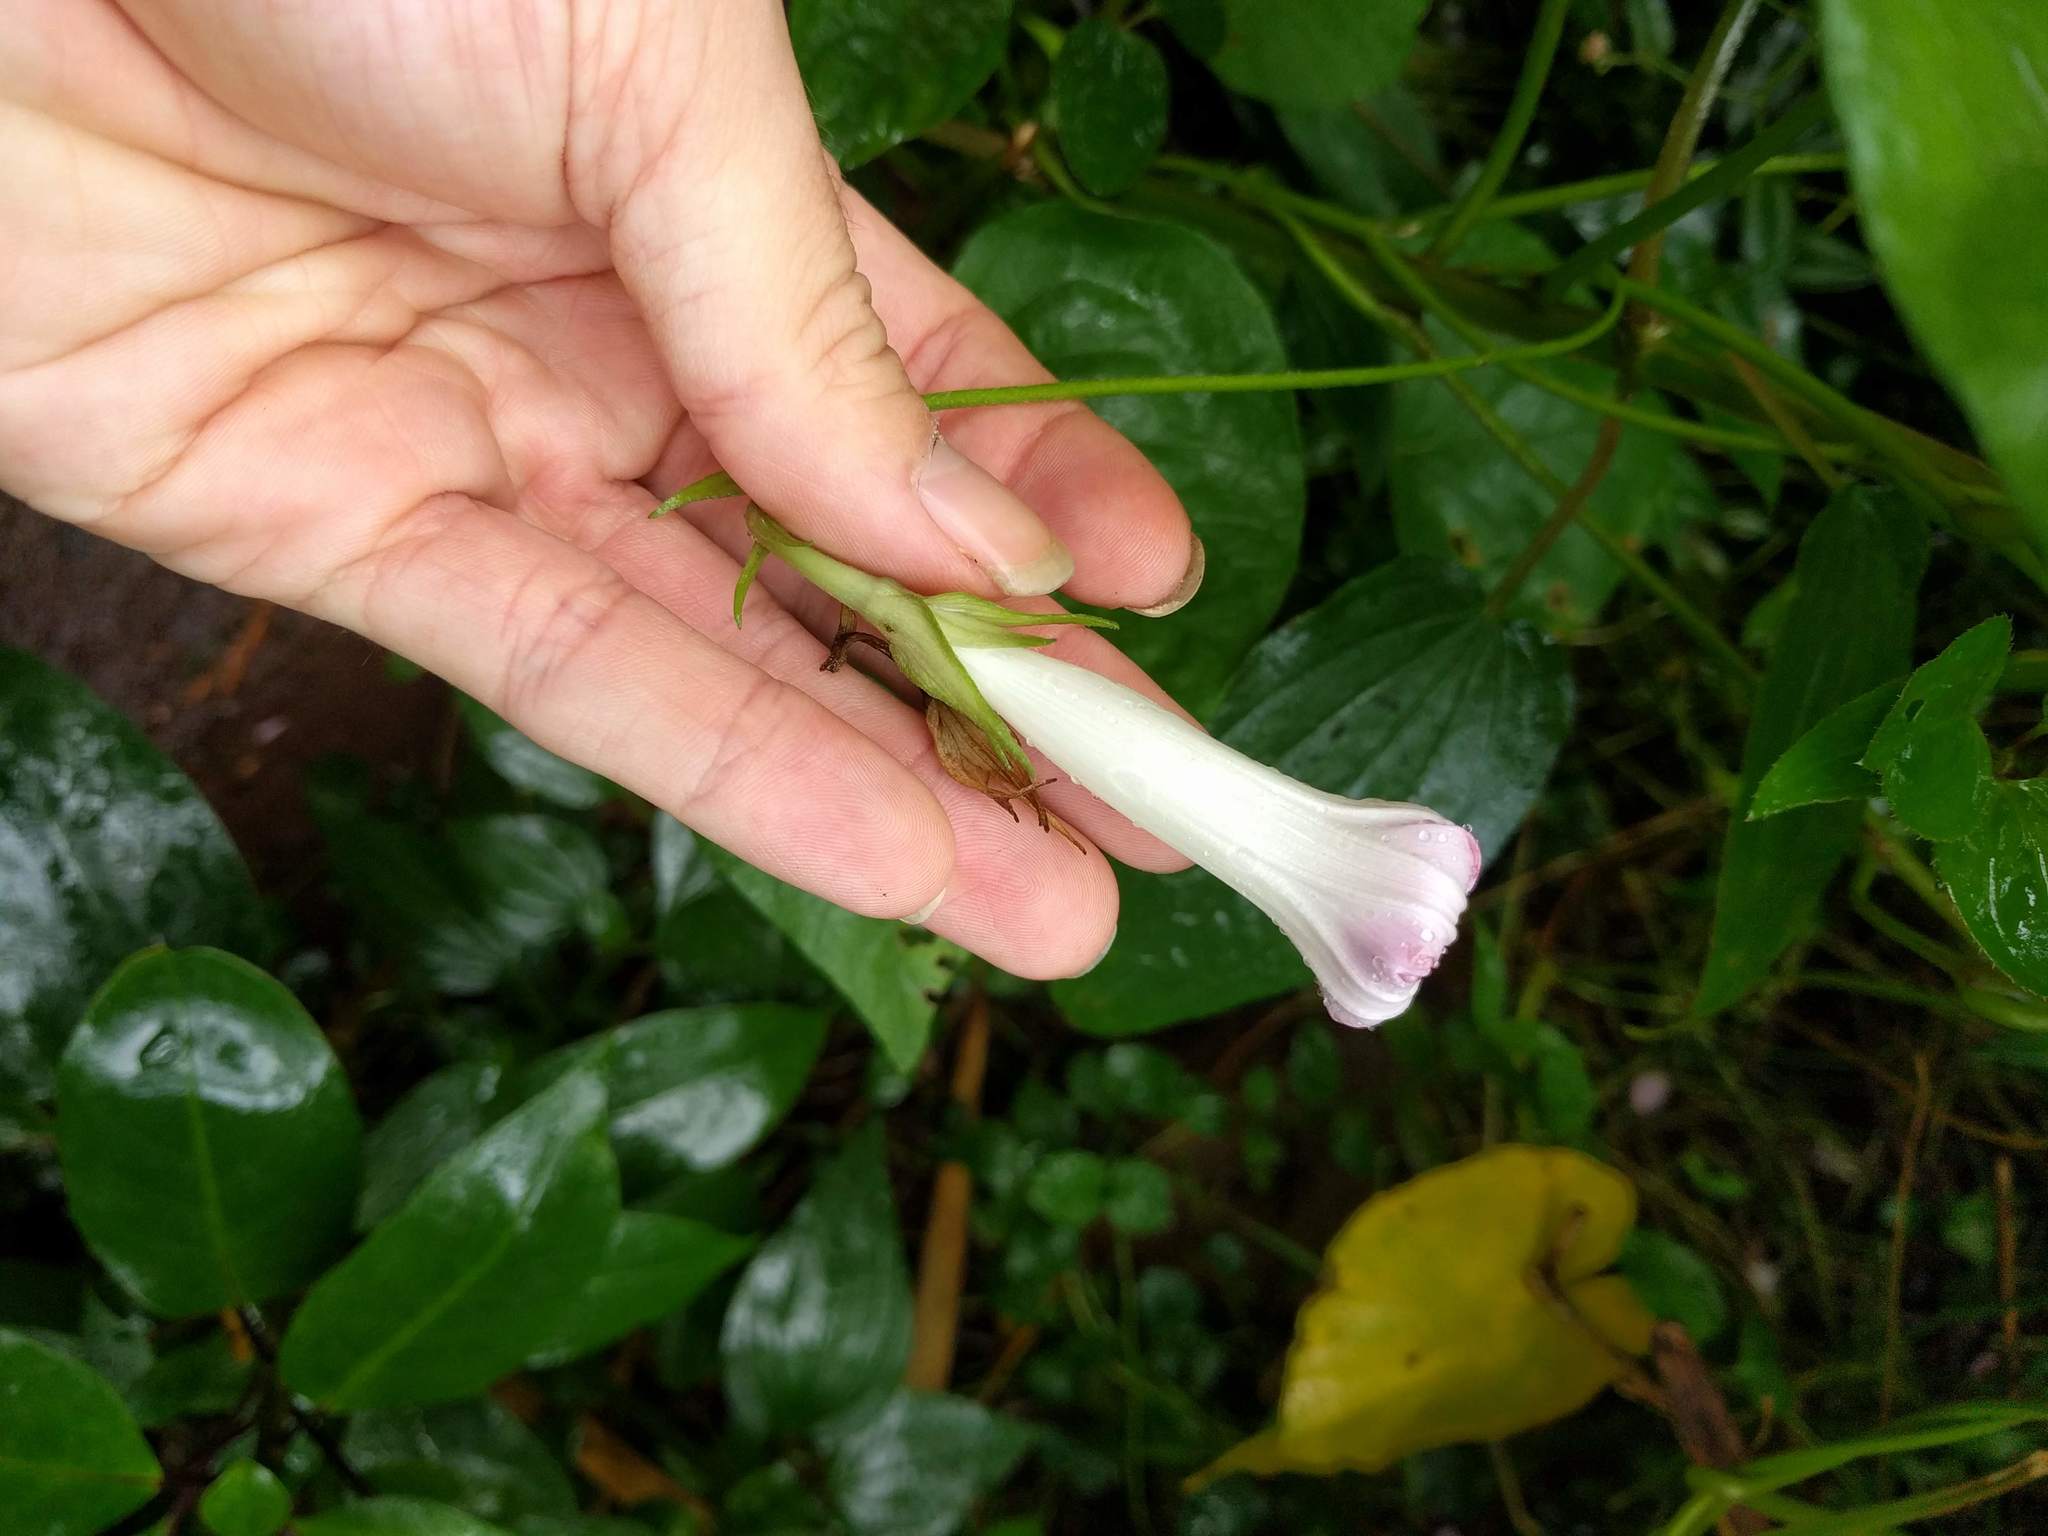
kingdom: Plantae
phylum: Tracheophyta
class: Magnoliopsida
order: Solanales
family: Convolvulaceae
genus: Ipomoea
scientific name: Ipomoea indica
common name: Blue dawnflower
